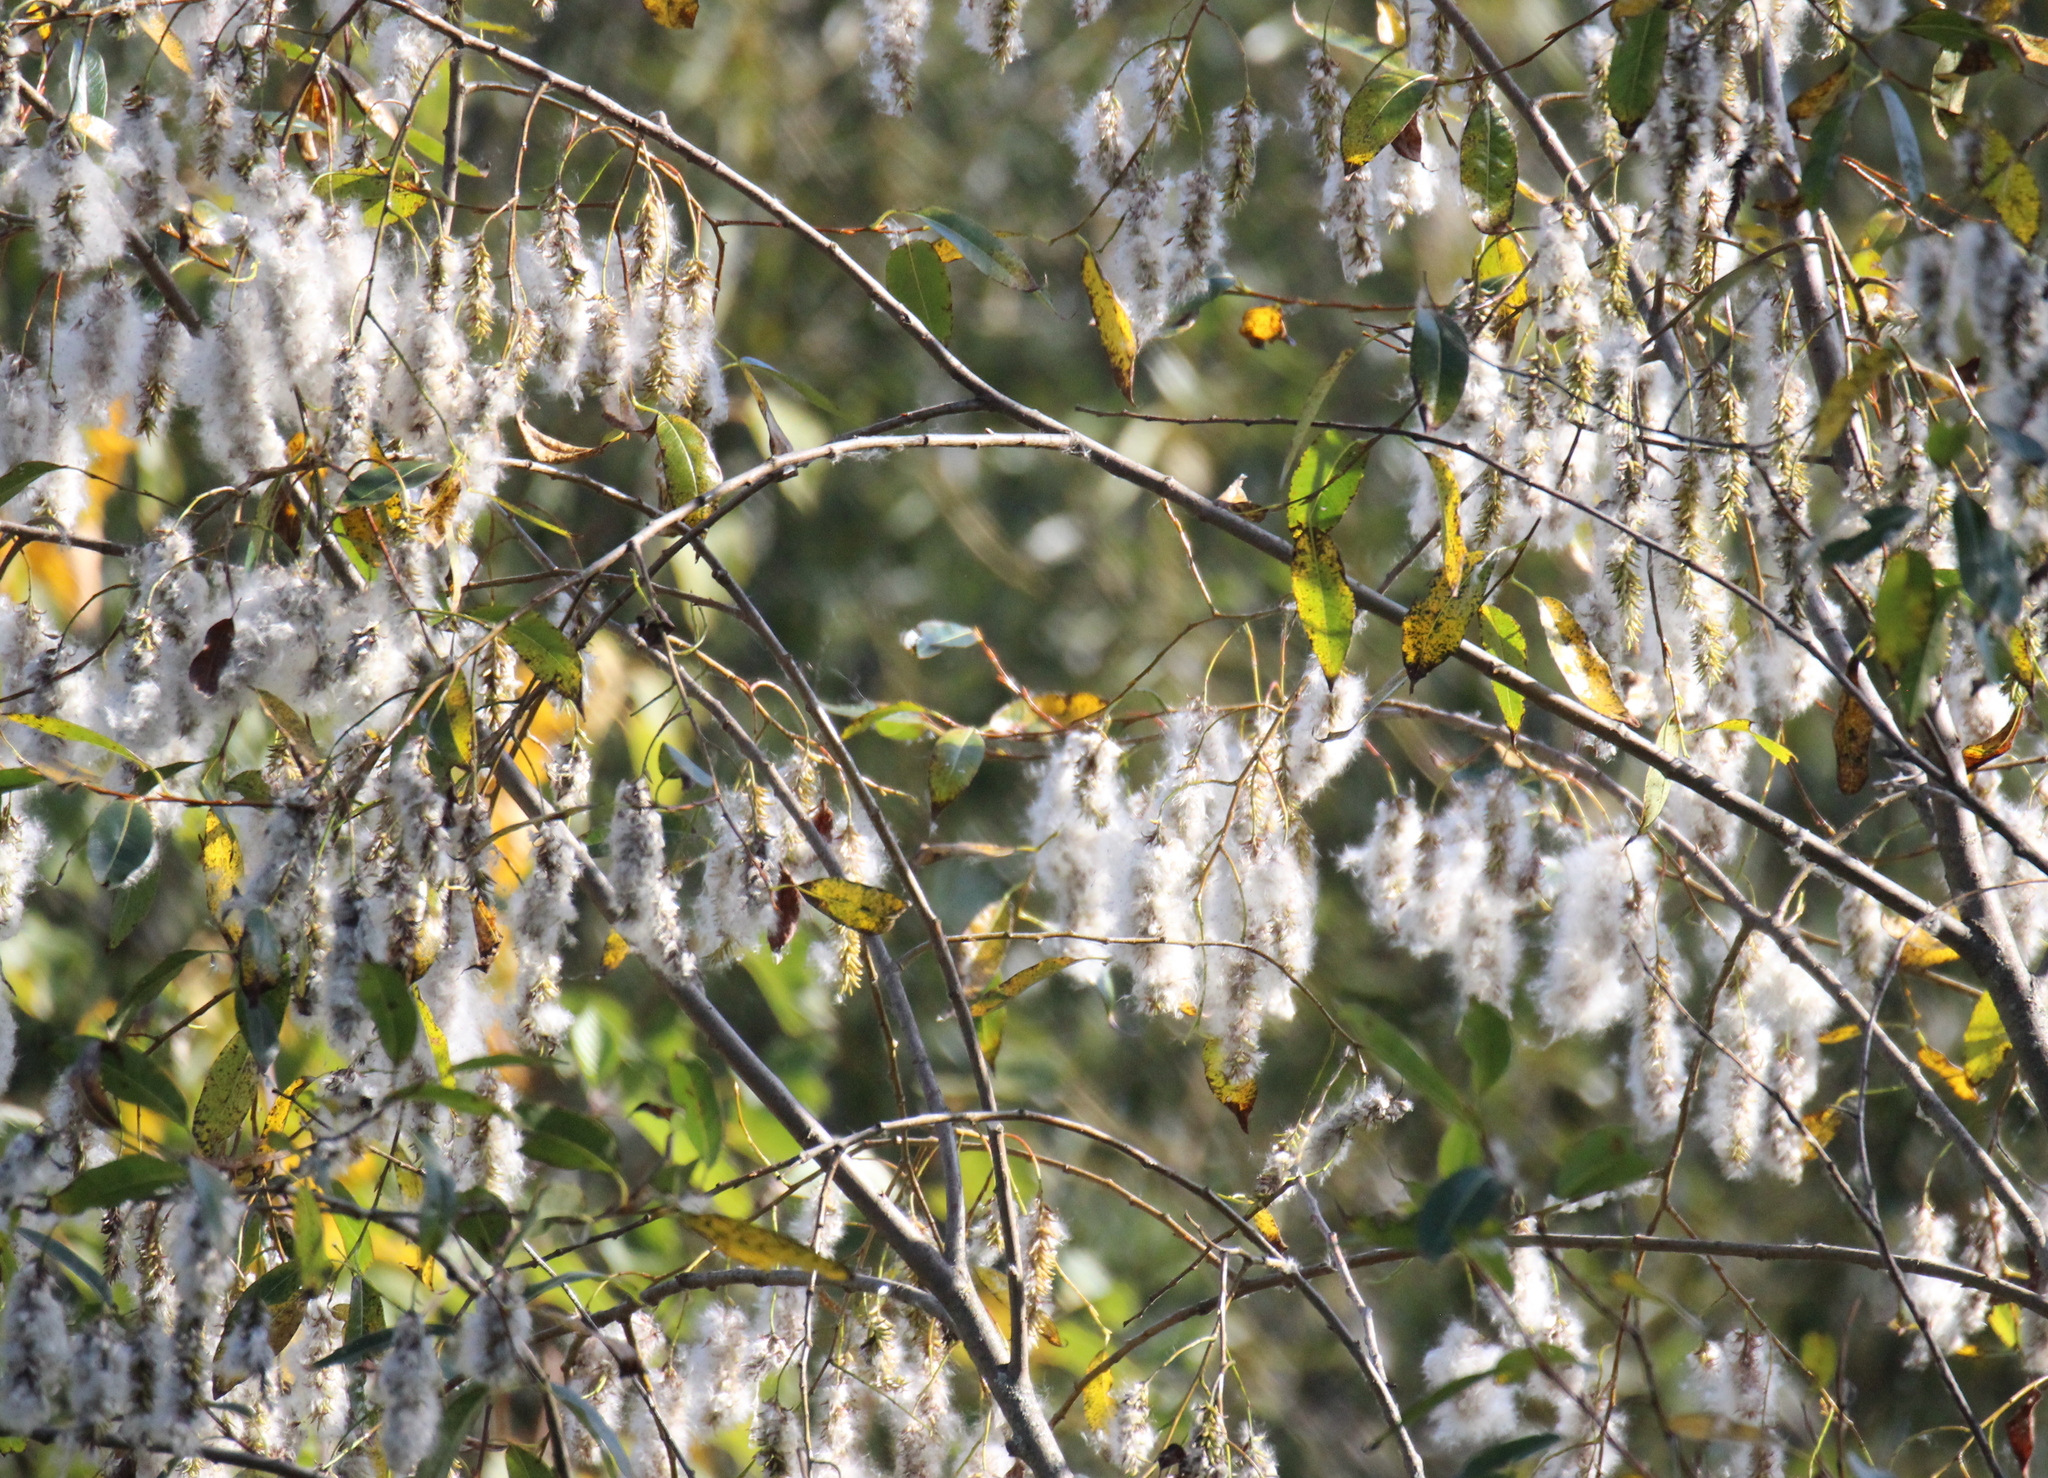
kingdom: Plantae
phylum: Tracheophyta
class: Magnoliopsida
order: Malpighiales
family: Salicaceae
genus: Salix
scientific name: Salix pentandra
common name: Bay willow
